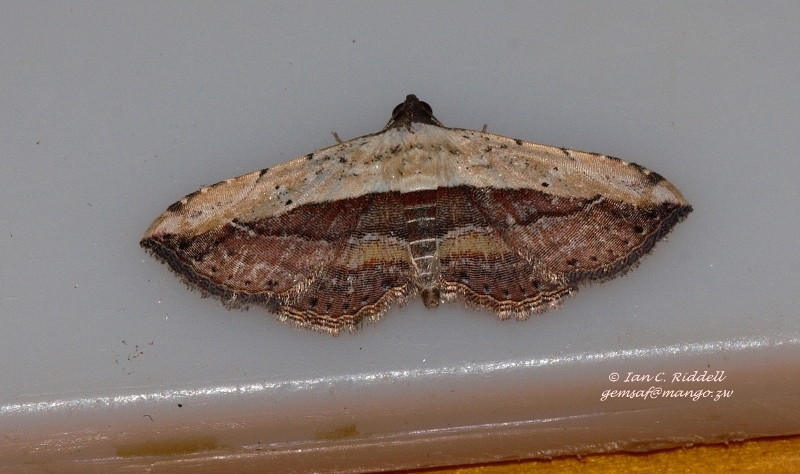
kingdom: Animalia
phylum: Arthropoda
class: Insecta
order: Lepidoptera
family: Erebidae
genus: Grammodes
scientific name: Grammodes latifera
